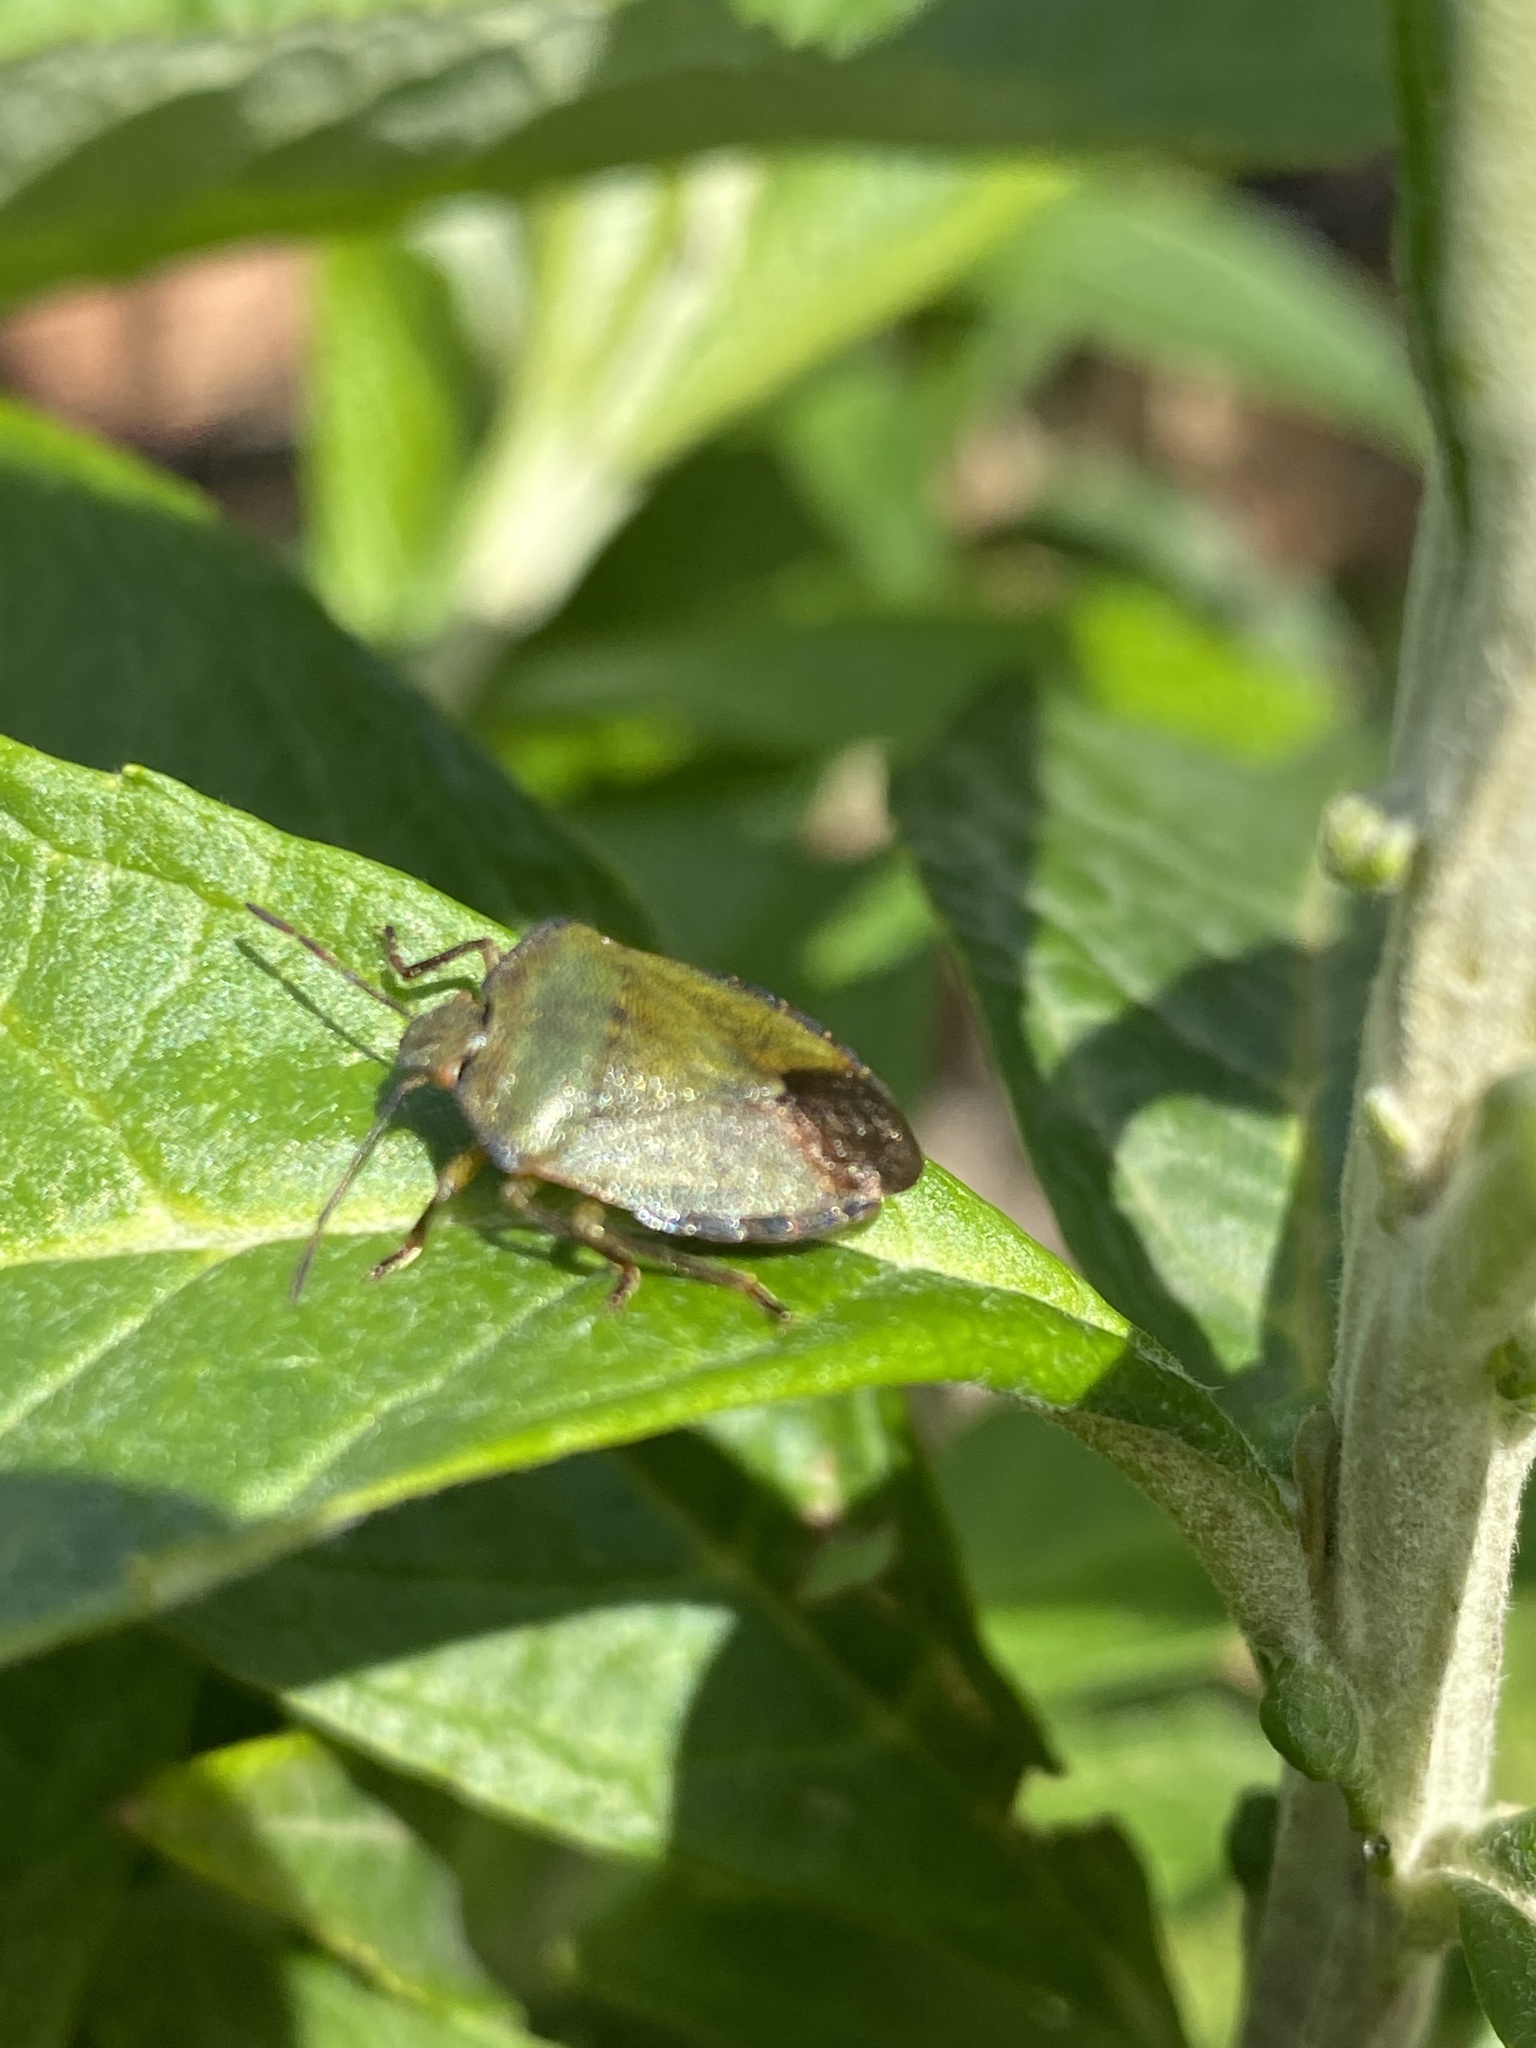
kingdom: Animalia
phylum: Arthropoda
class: Insecta
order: Hemiptera
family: Pentatomidae
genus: Palomena
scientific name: Palomena prasina
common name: Green shieldbug
